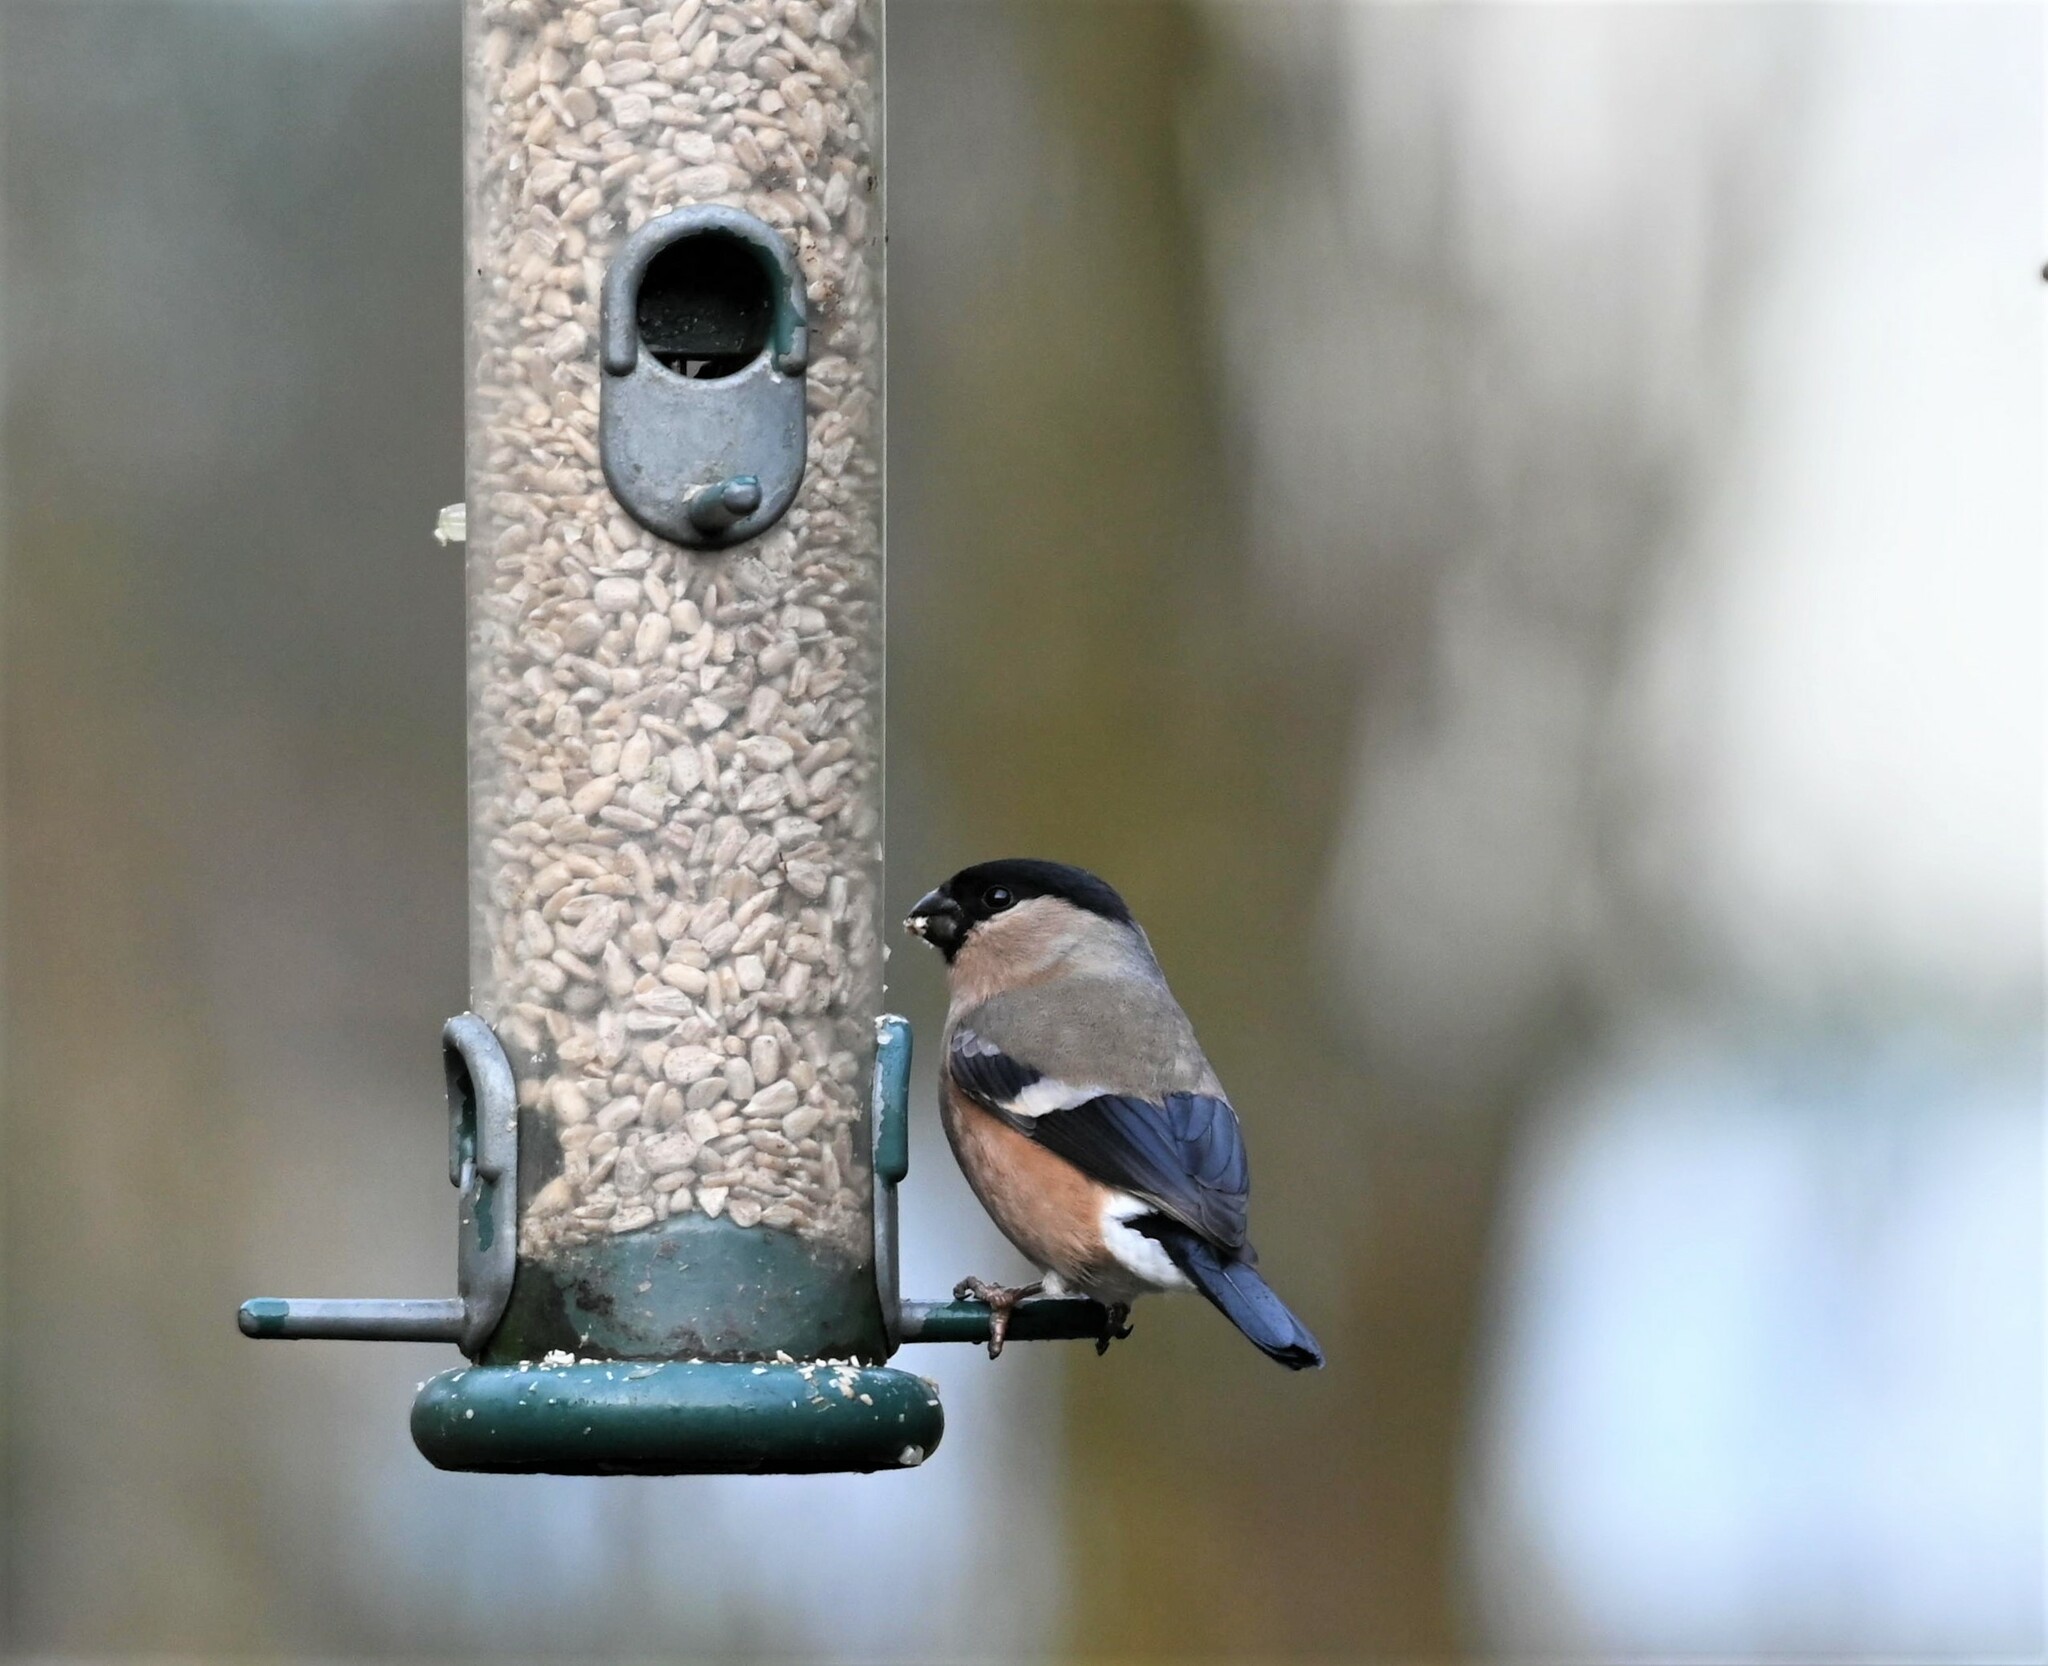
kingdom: Animalia
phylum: Chordata
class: Aves
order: Passeriformes
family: Fringillidae
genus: Pyrrhula
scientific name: Pyrrhula pyrrhula
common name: Eurasian bullfinch
